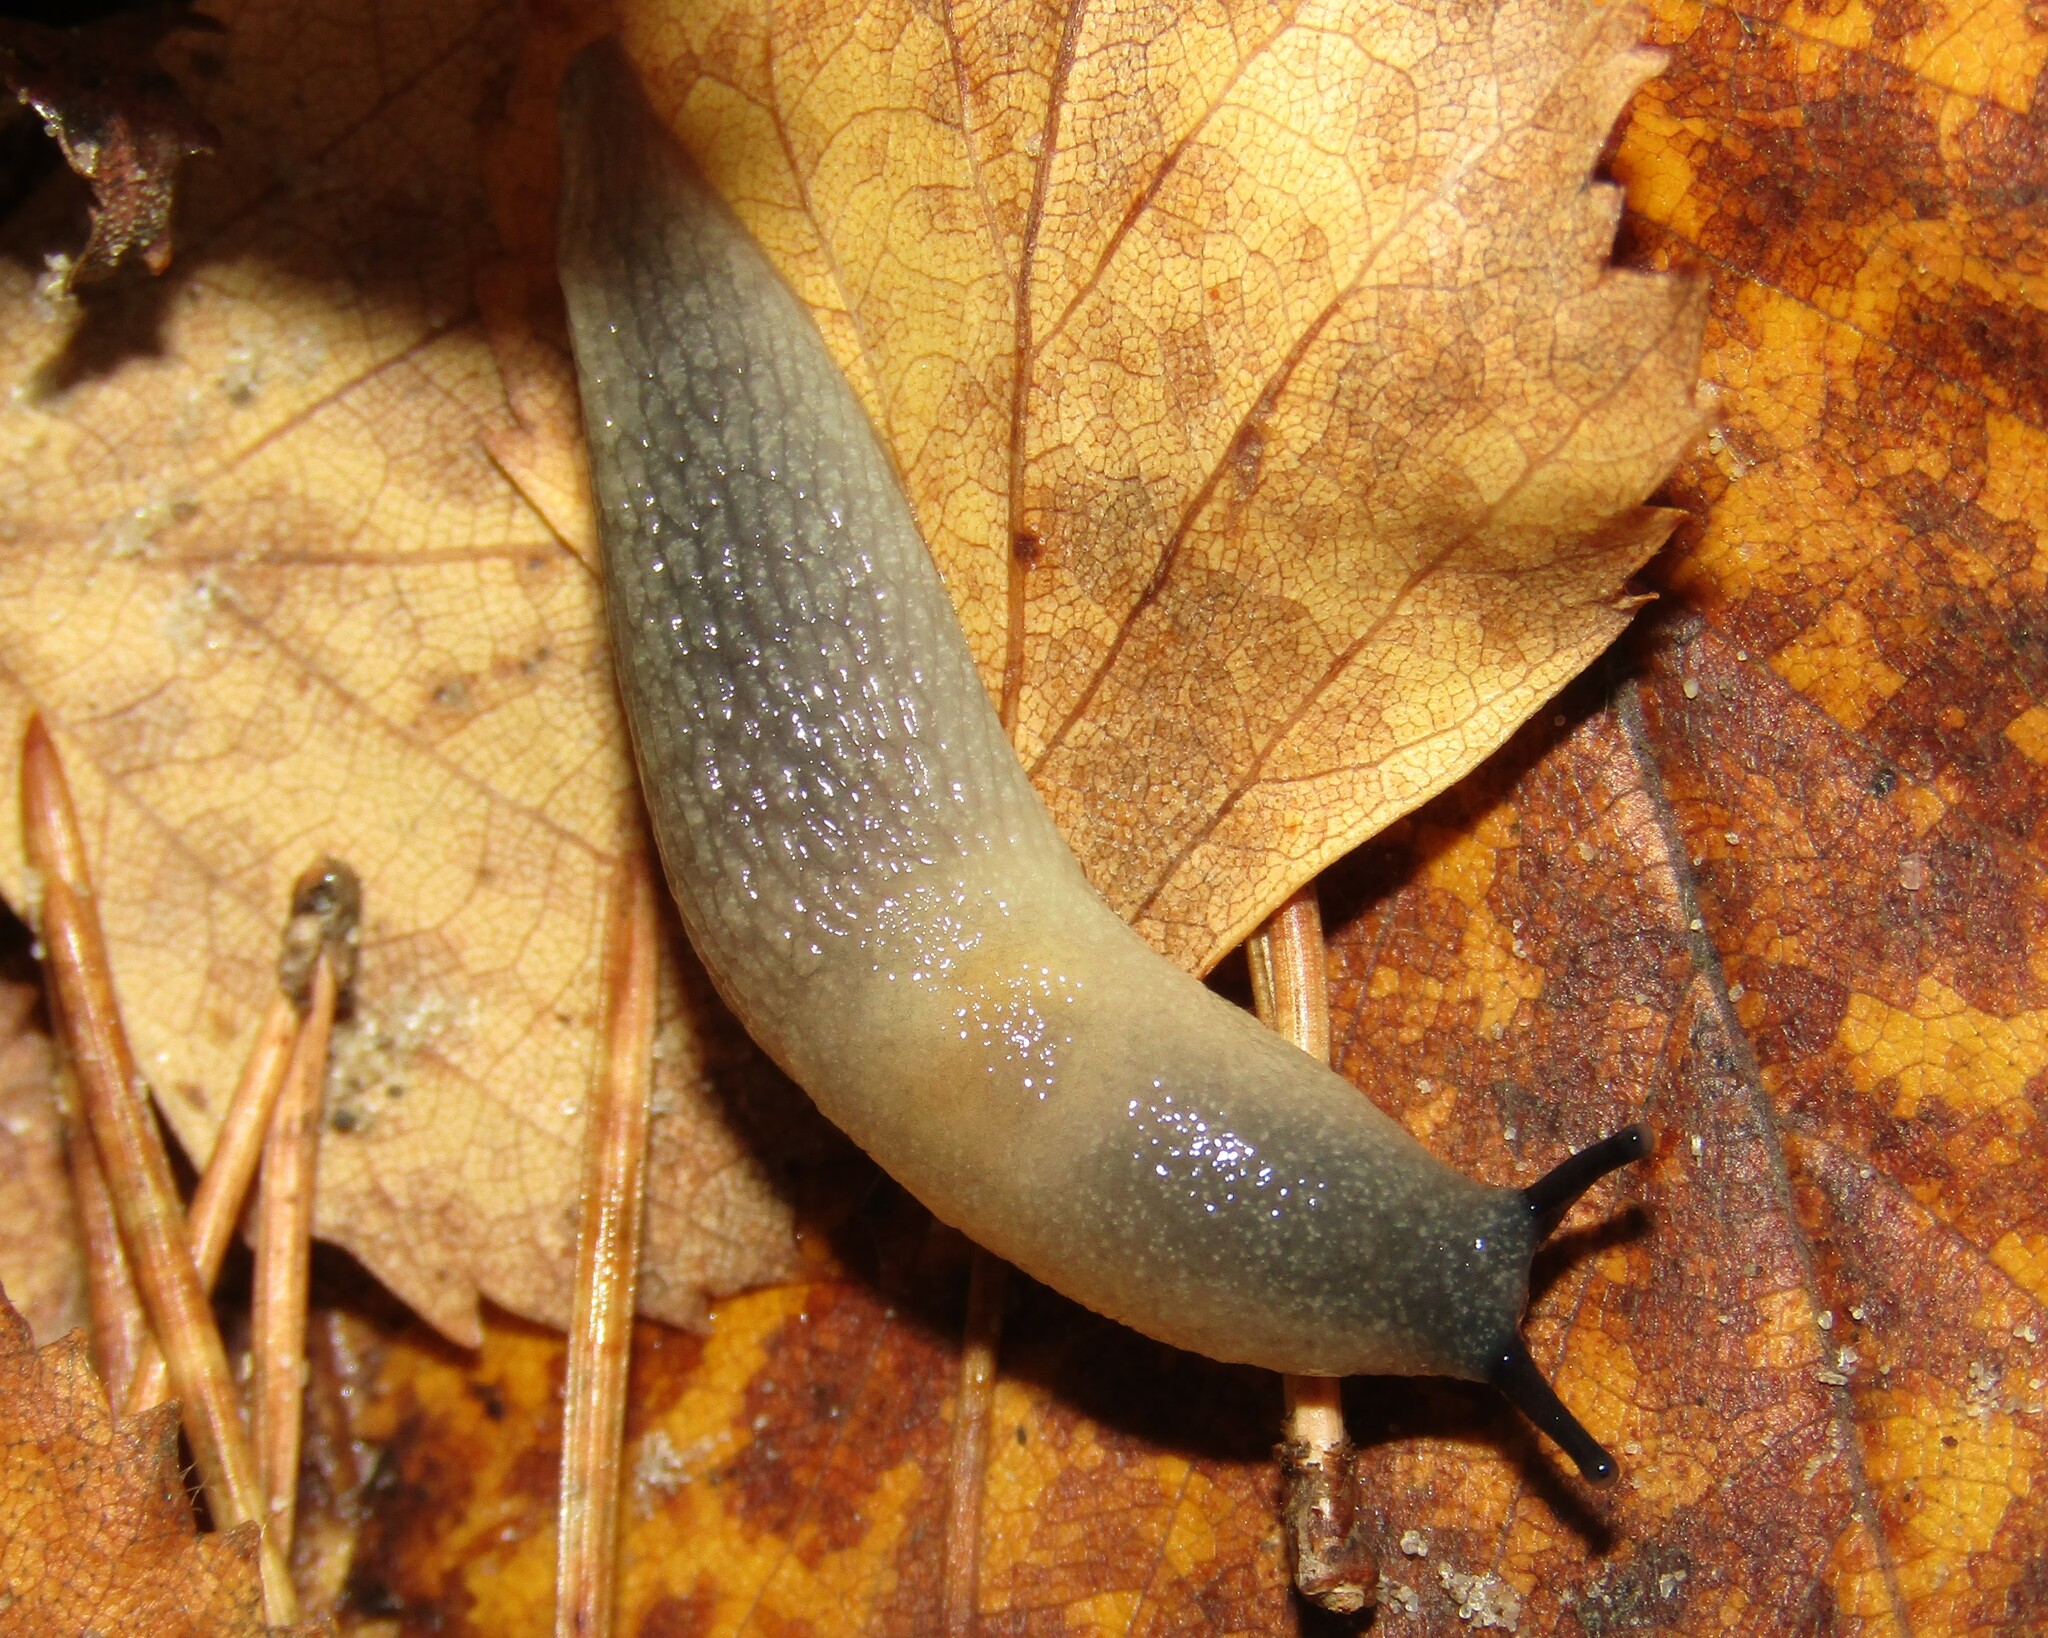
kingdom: Animalia
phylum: Mollusca
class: Gastropoda
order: Stylommatophora
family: Agriolimacidae
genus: Krynickillus
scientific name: Krynickillus melanocephalus
